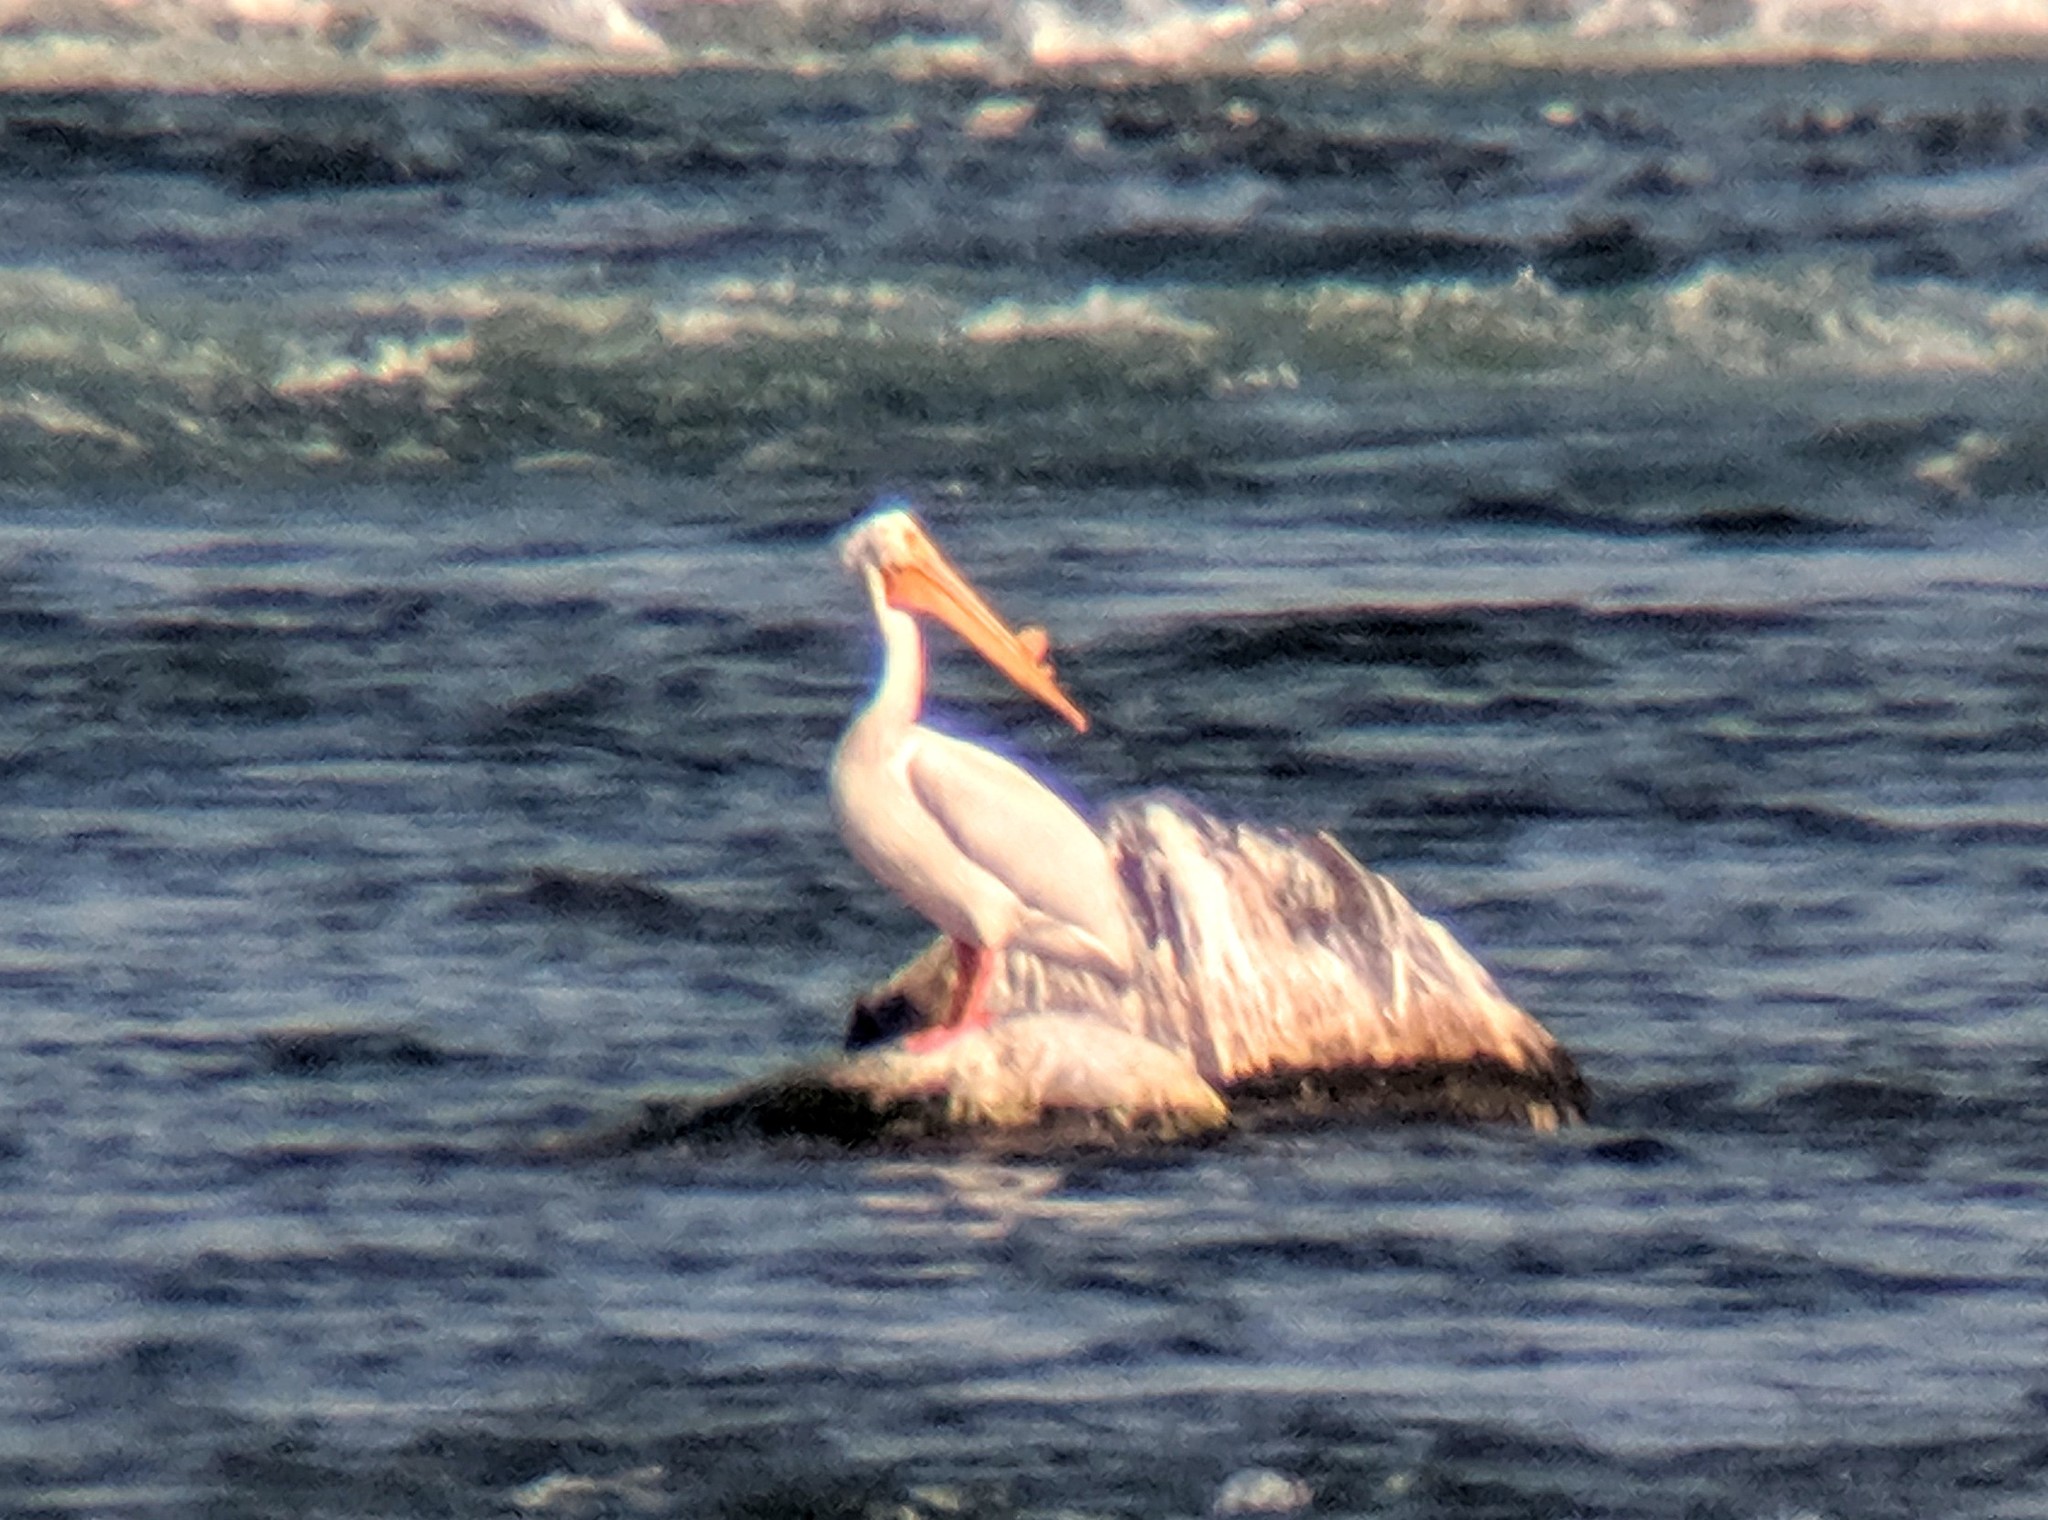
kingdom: Animalia
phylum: Chordata
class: Aves
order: Pelecaniformes
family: Pelecanidae
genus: Pelecanus
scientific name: Pelecanus erythrorhynchos
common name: American white pelican
